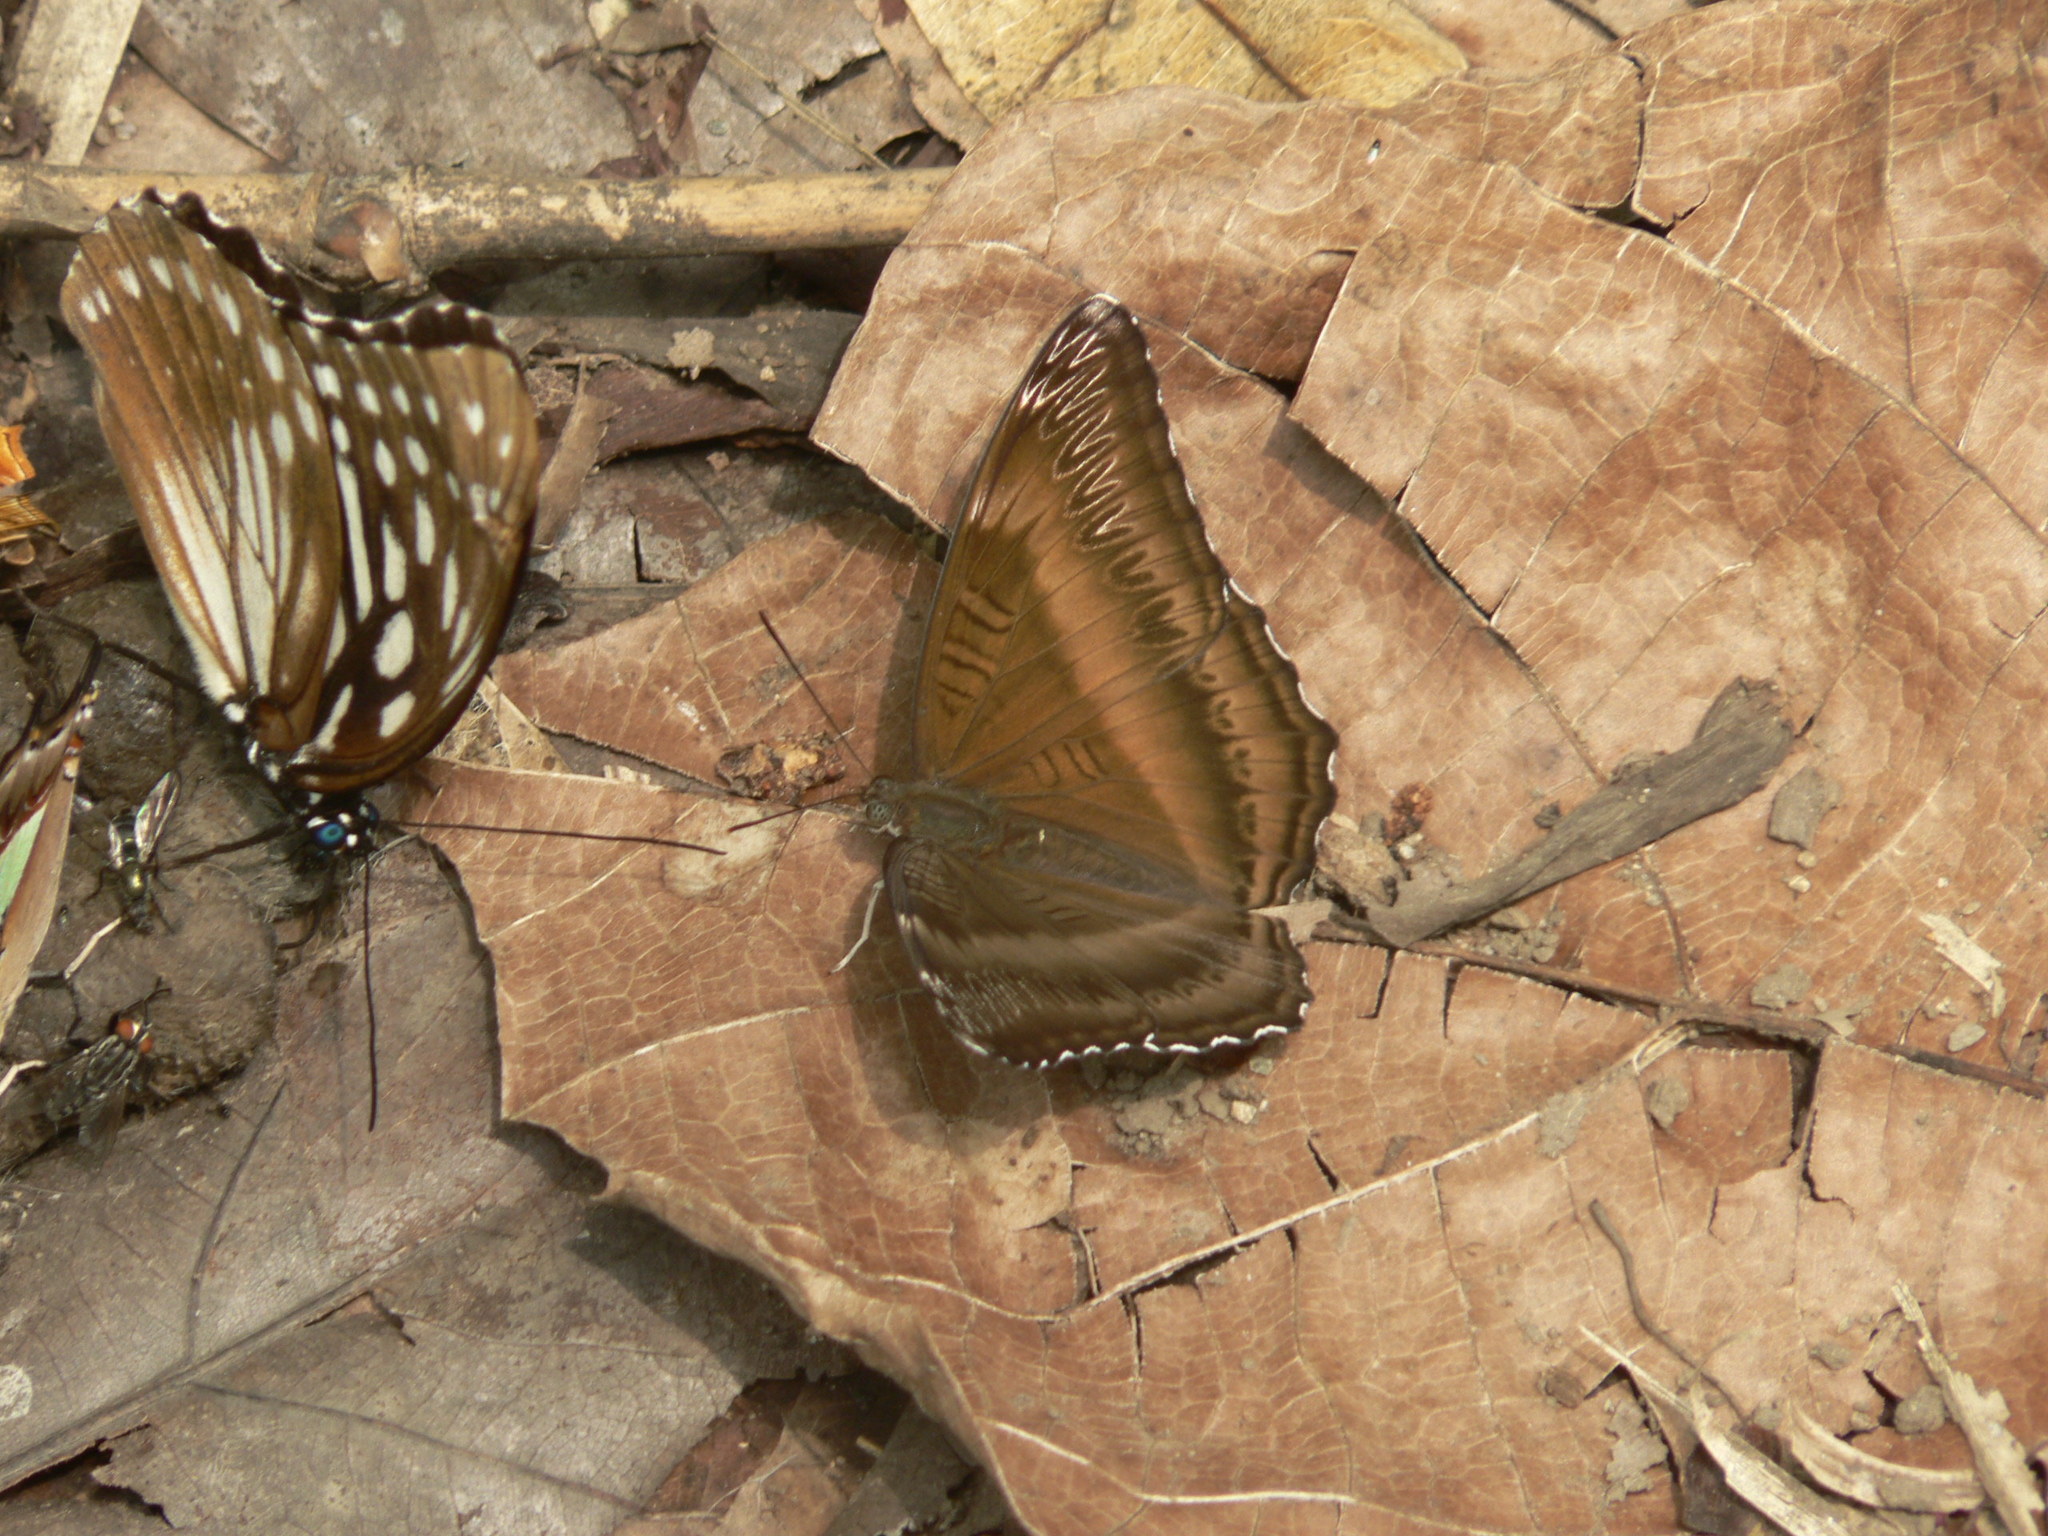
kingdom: Animalia
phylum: Arthropoda
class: Insecta
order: Lepidoptera
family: Nymphalidae
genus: Limenitis
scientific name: Limenitis Bhagadatta austenia
